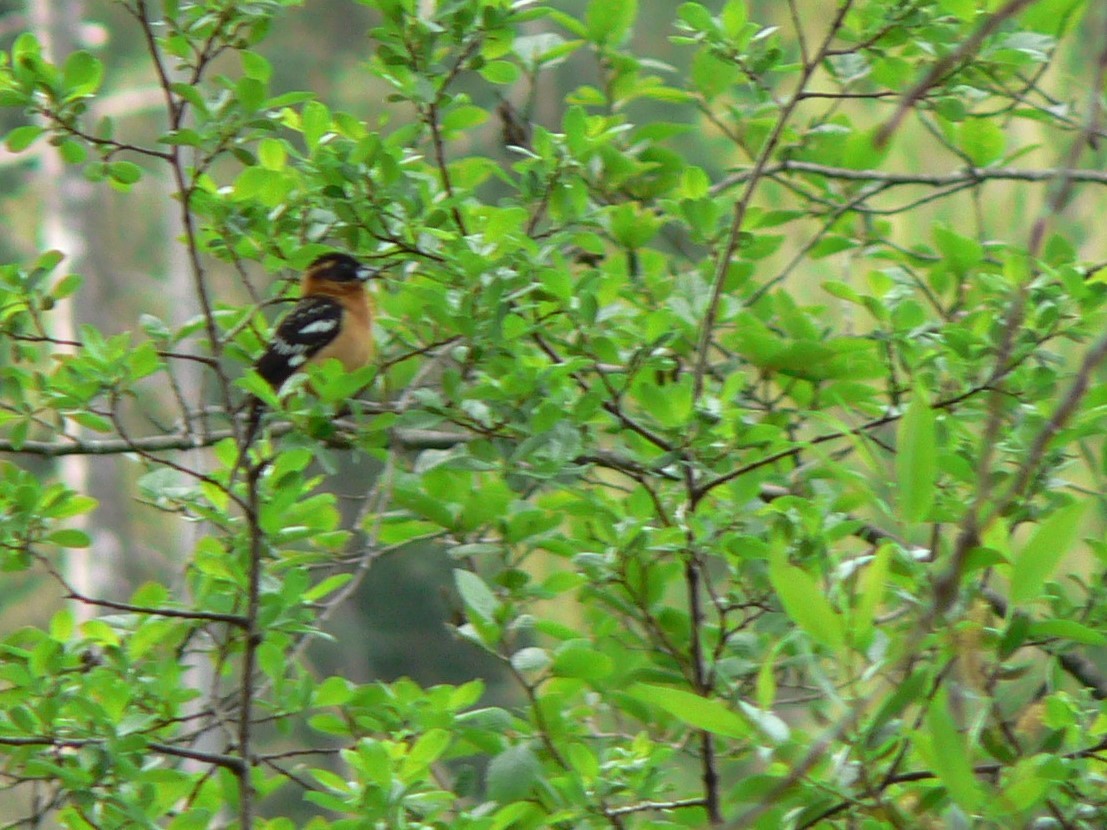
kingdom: Animalia
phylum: Chordata
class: Aves
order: Passeriformes
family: Cardinalidae
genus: Pheucticus
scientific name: Pheucticus melanocephalus
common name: Black-headed grosbeak
